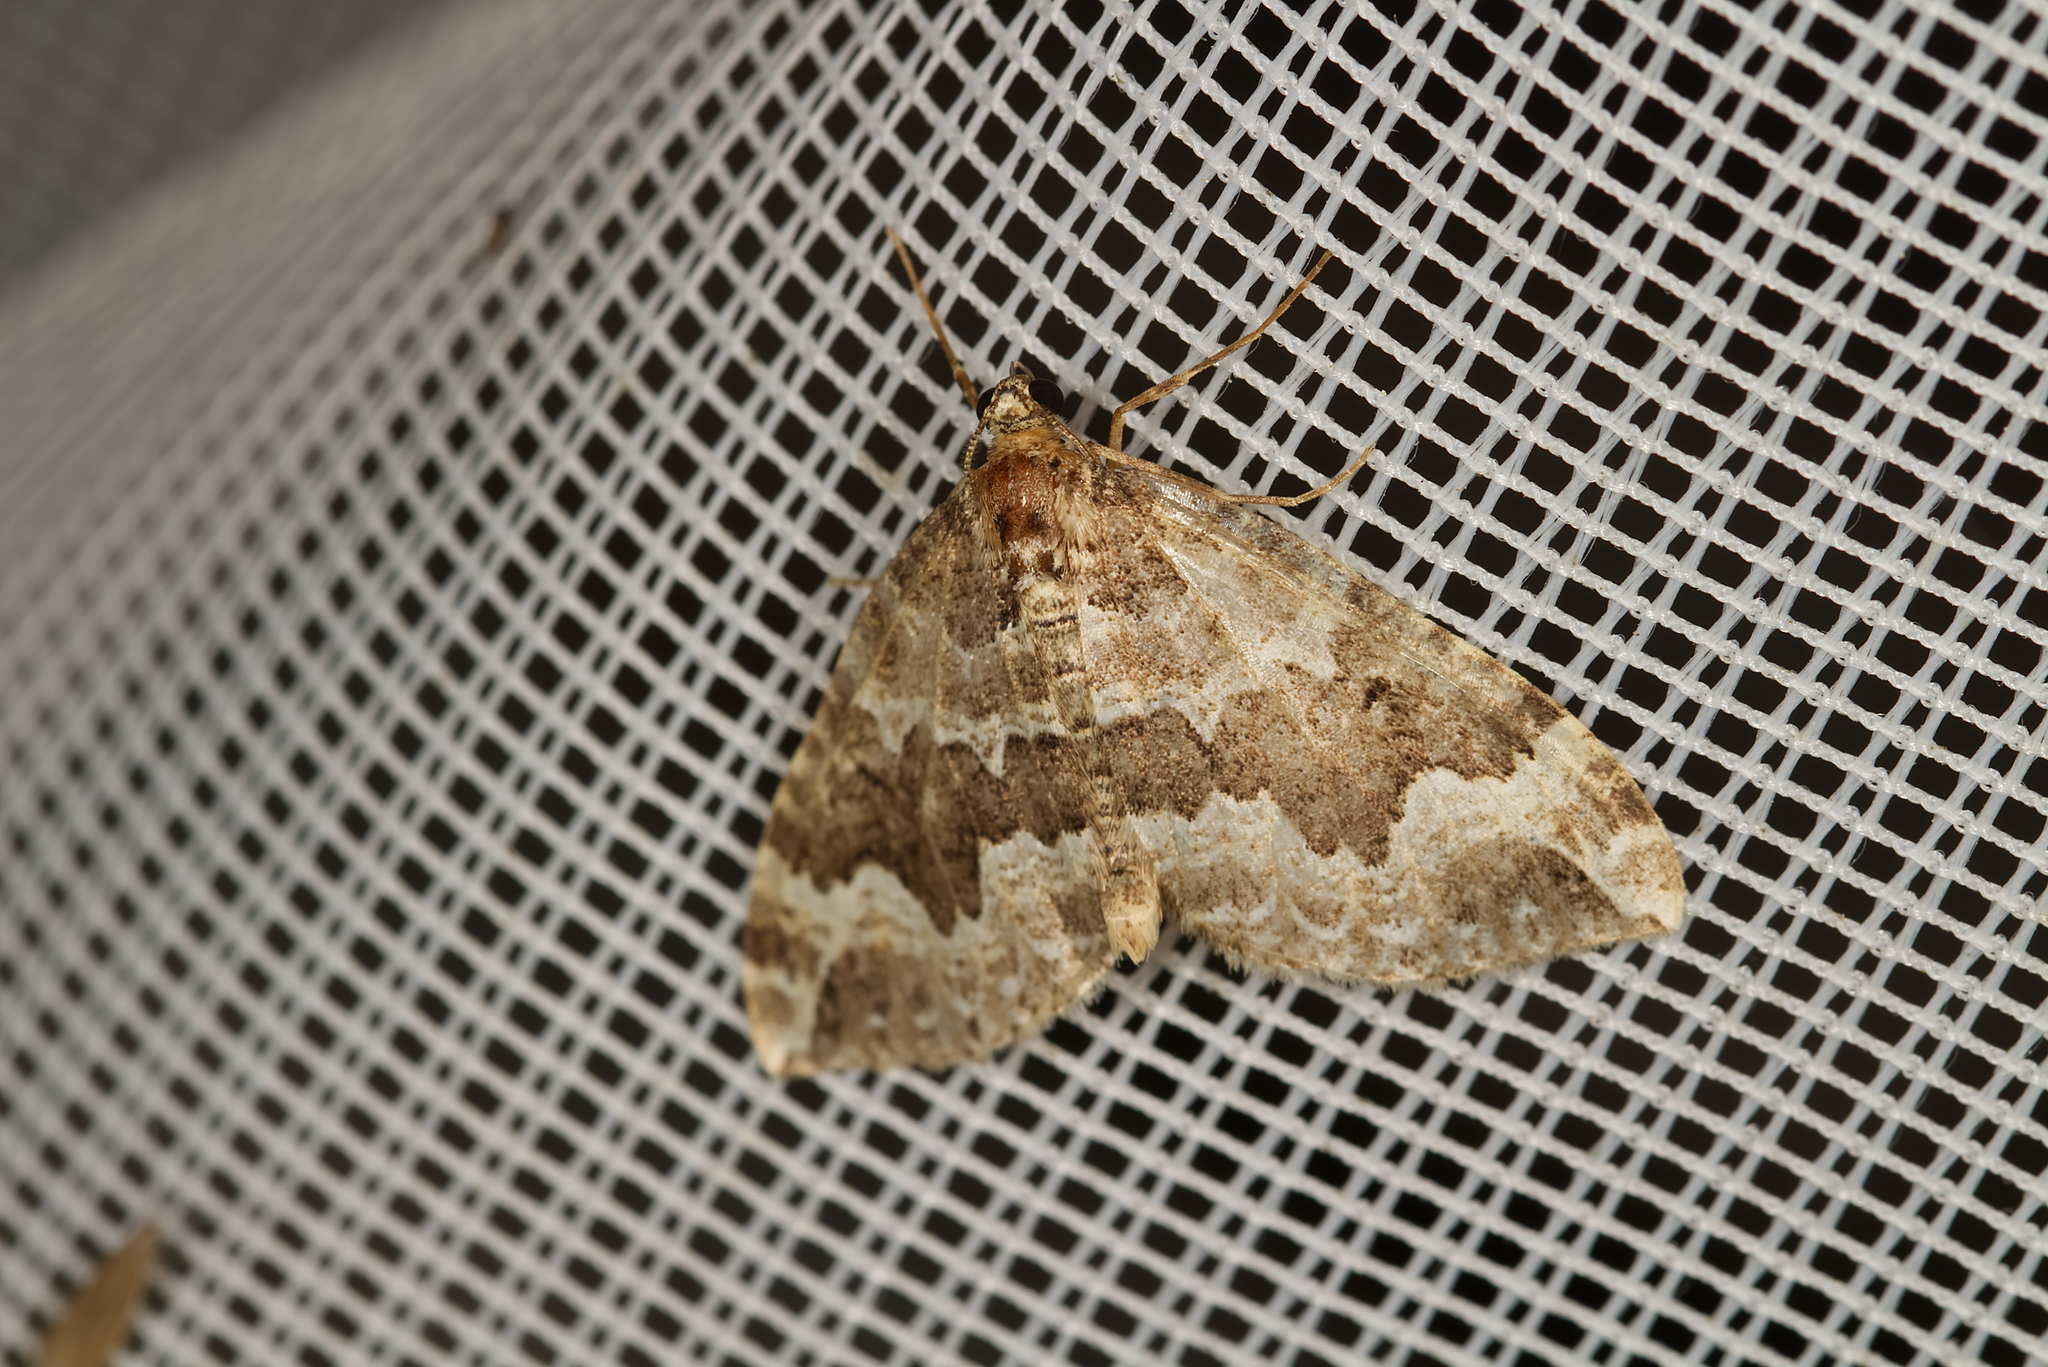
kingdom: Animalia
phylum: Arthropoda
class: Insecta
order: Lepidoptera
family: Geometridae
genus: Lampropteryx
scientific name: Lampropteryx suffumata
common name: Water carpet
